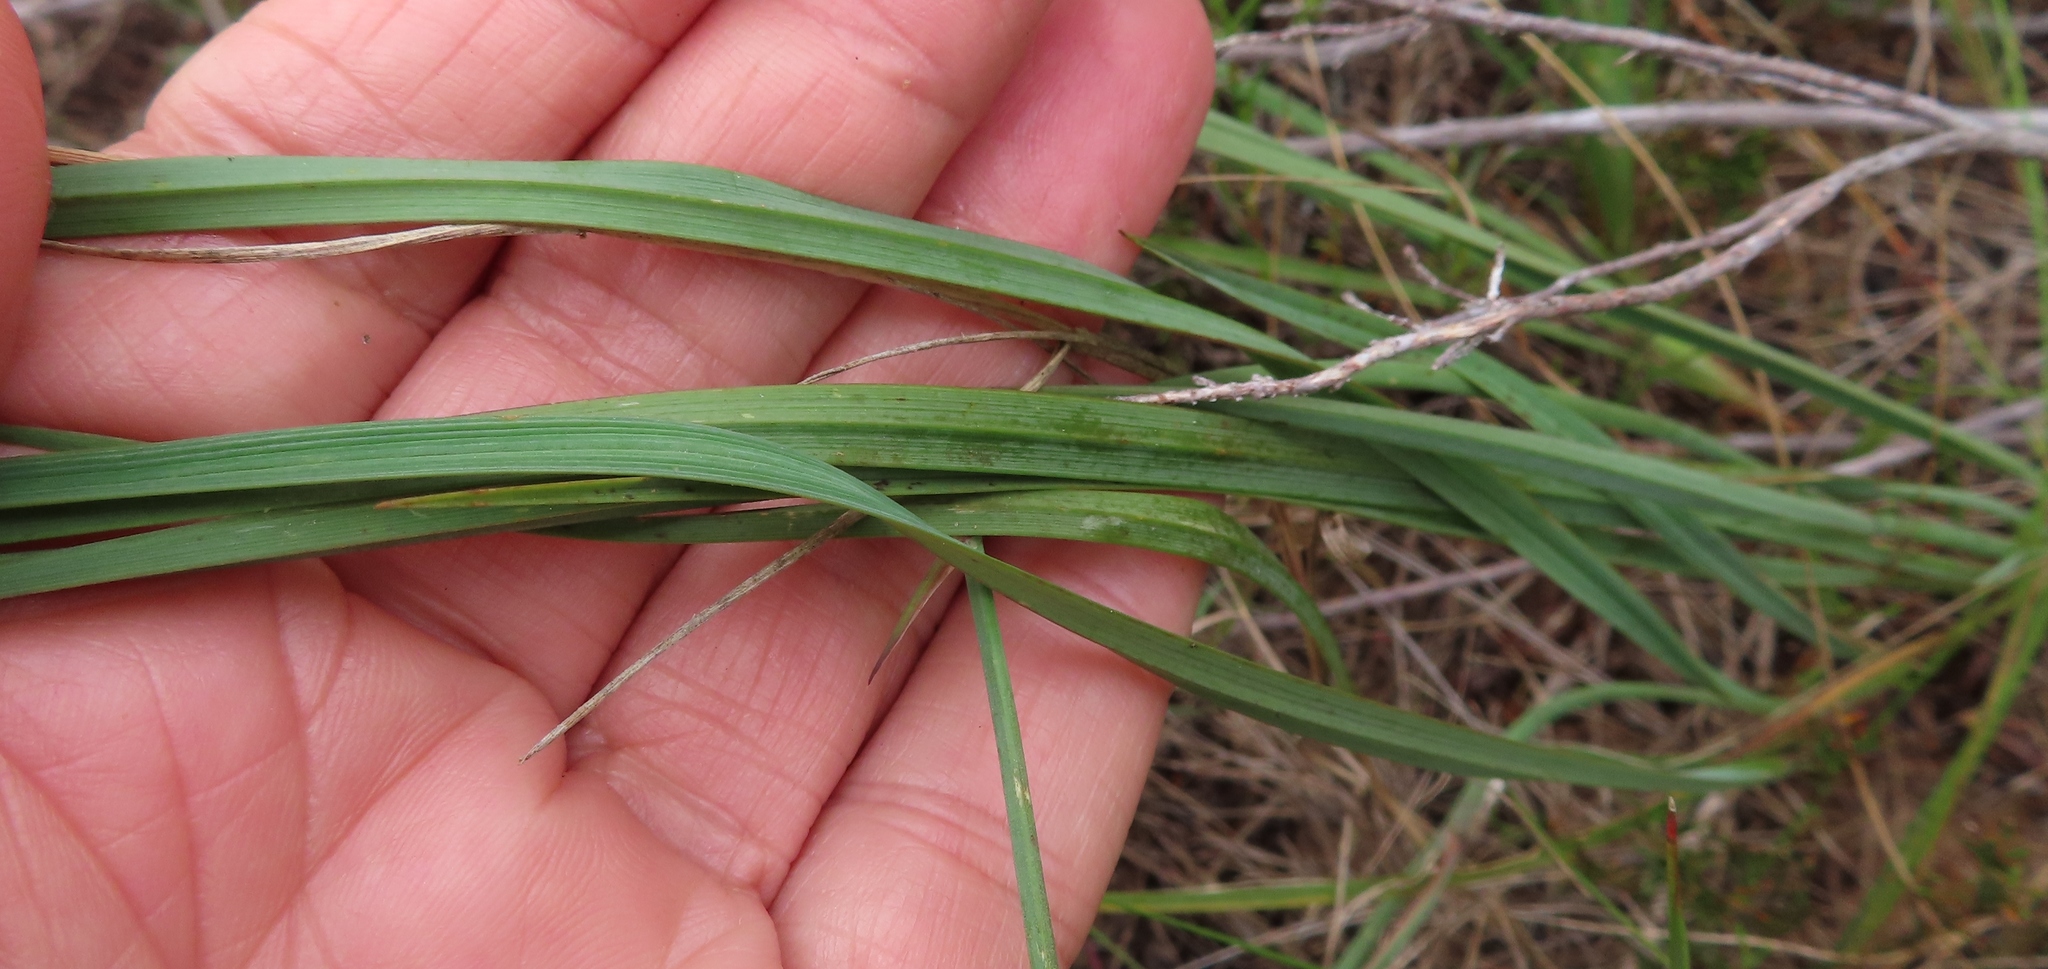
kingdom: Plantae
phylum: Tracheophyta
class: Liliopsida
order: Asparagales
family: Asphodelaceae
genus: Caesia
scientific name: Caesia contorta
